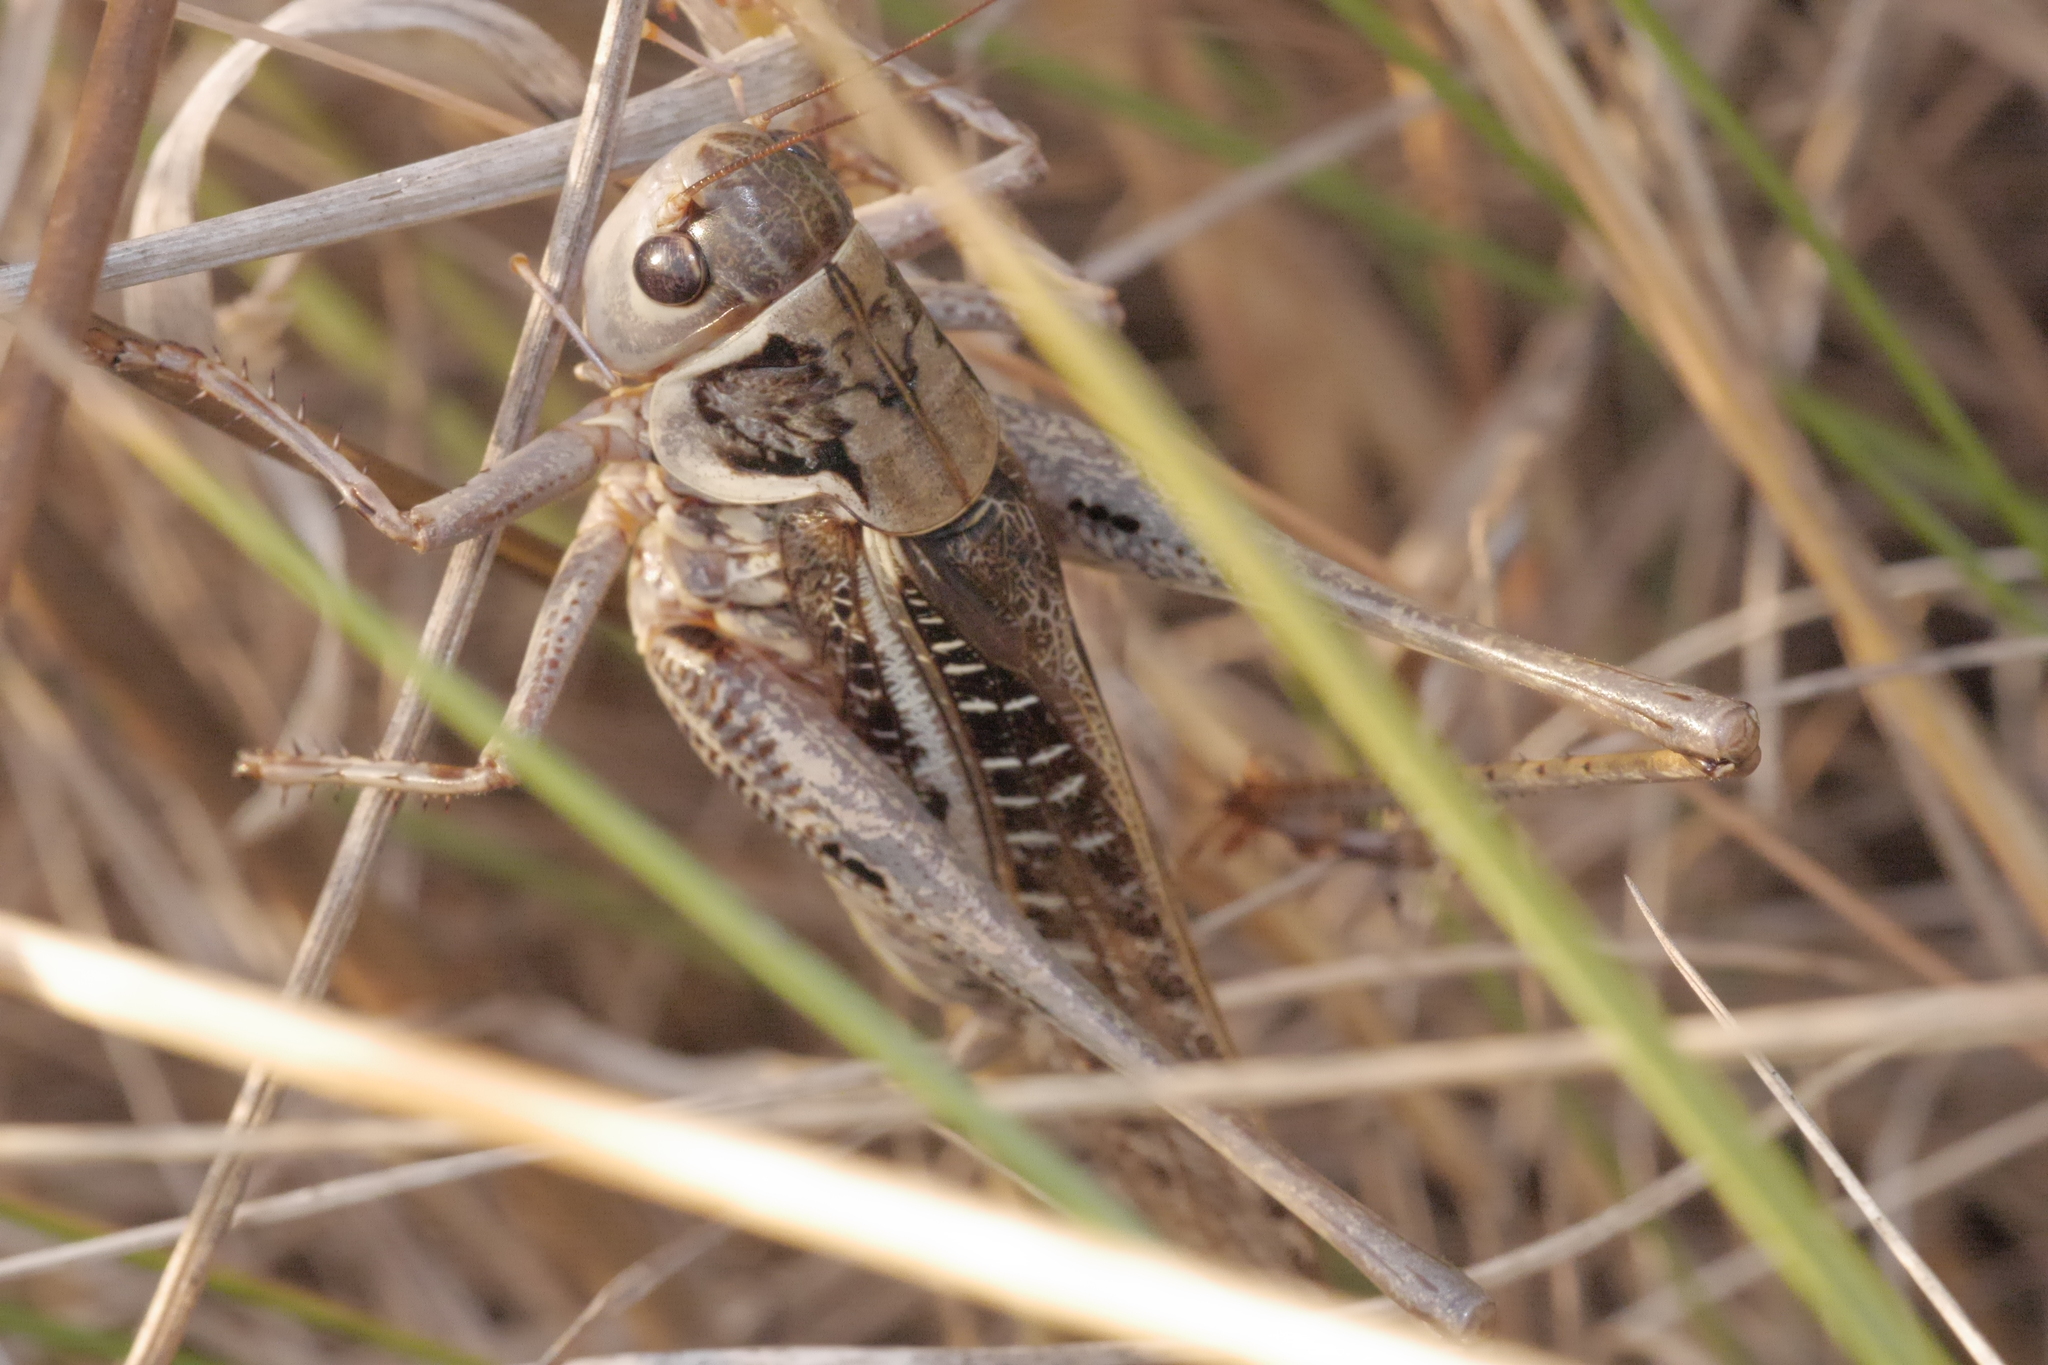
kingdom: Animalia
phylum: Arthropoda
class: Insecta
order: Orthoptera
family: Tettigoniidae
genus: Decticus
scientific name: Decticus albifrons
